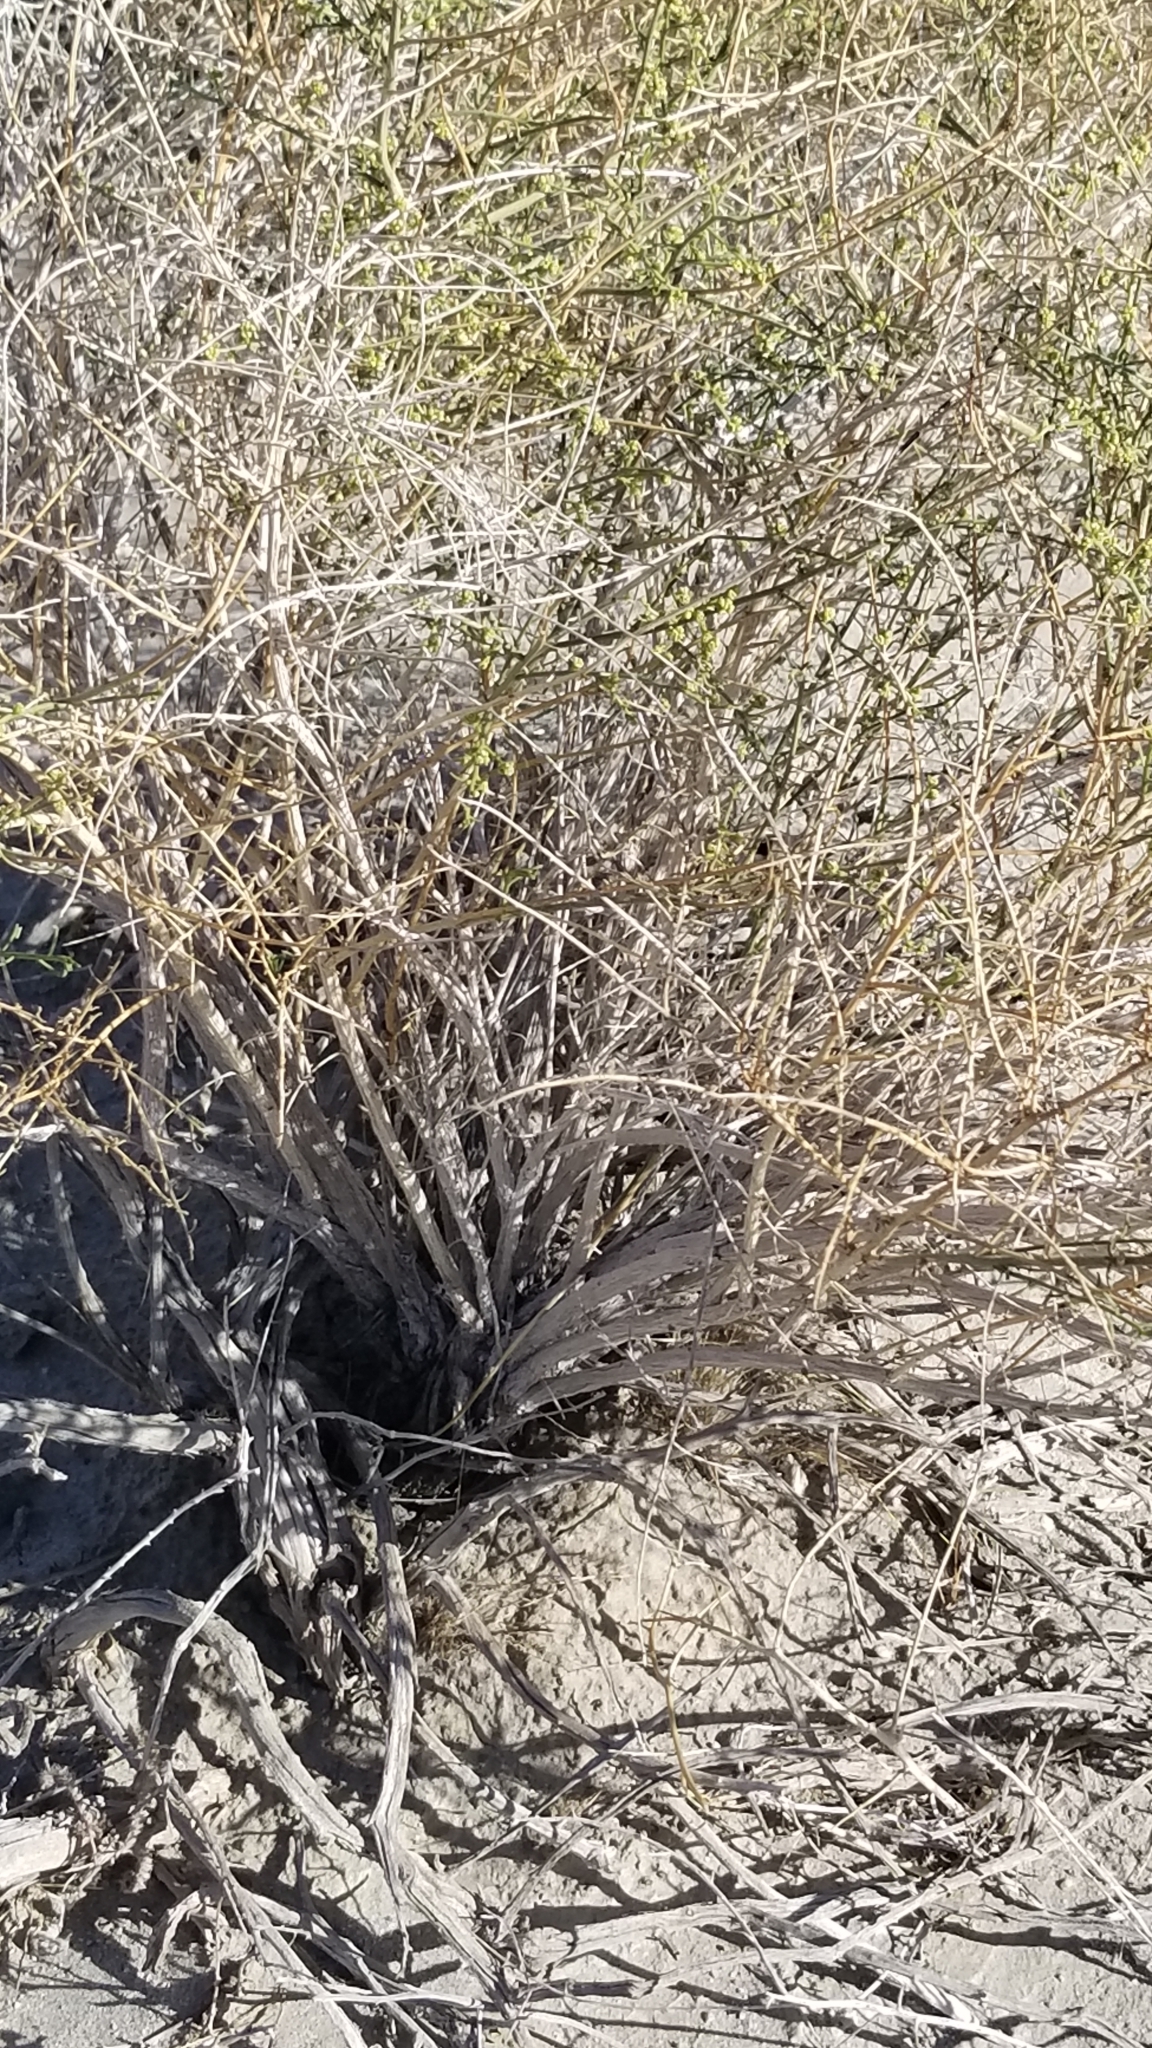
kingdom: Plantae
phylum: Tracheophyta
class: Magnoliopsida
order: Asterales
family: Asteraceae
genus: Ambrosia
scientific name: Ambrosia salsola
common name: Burrobrush
